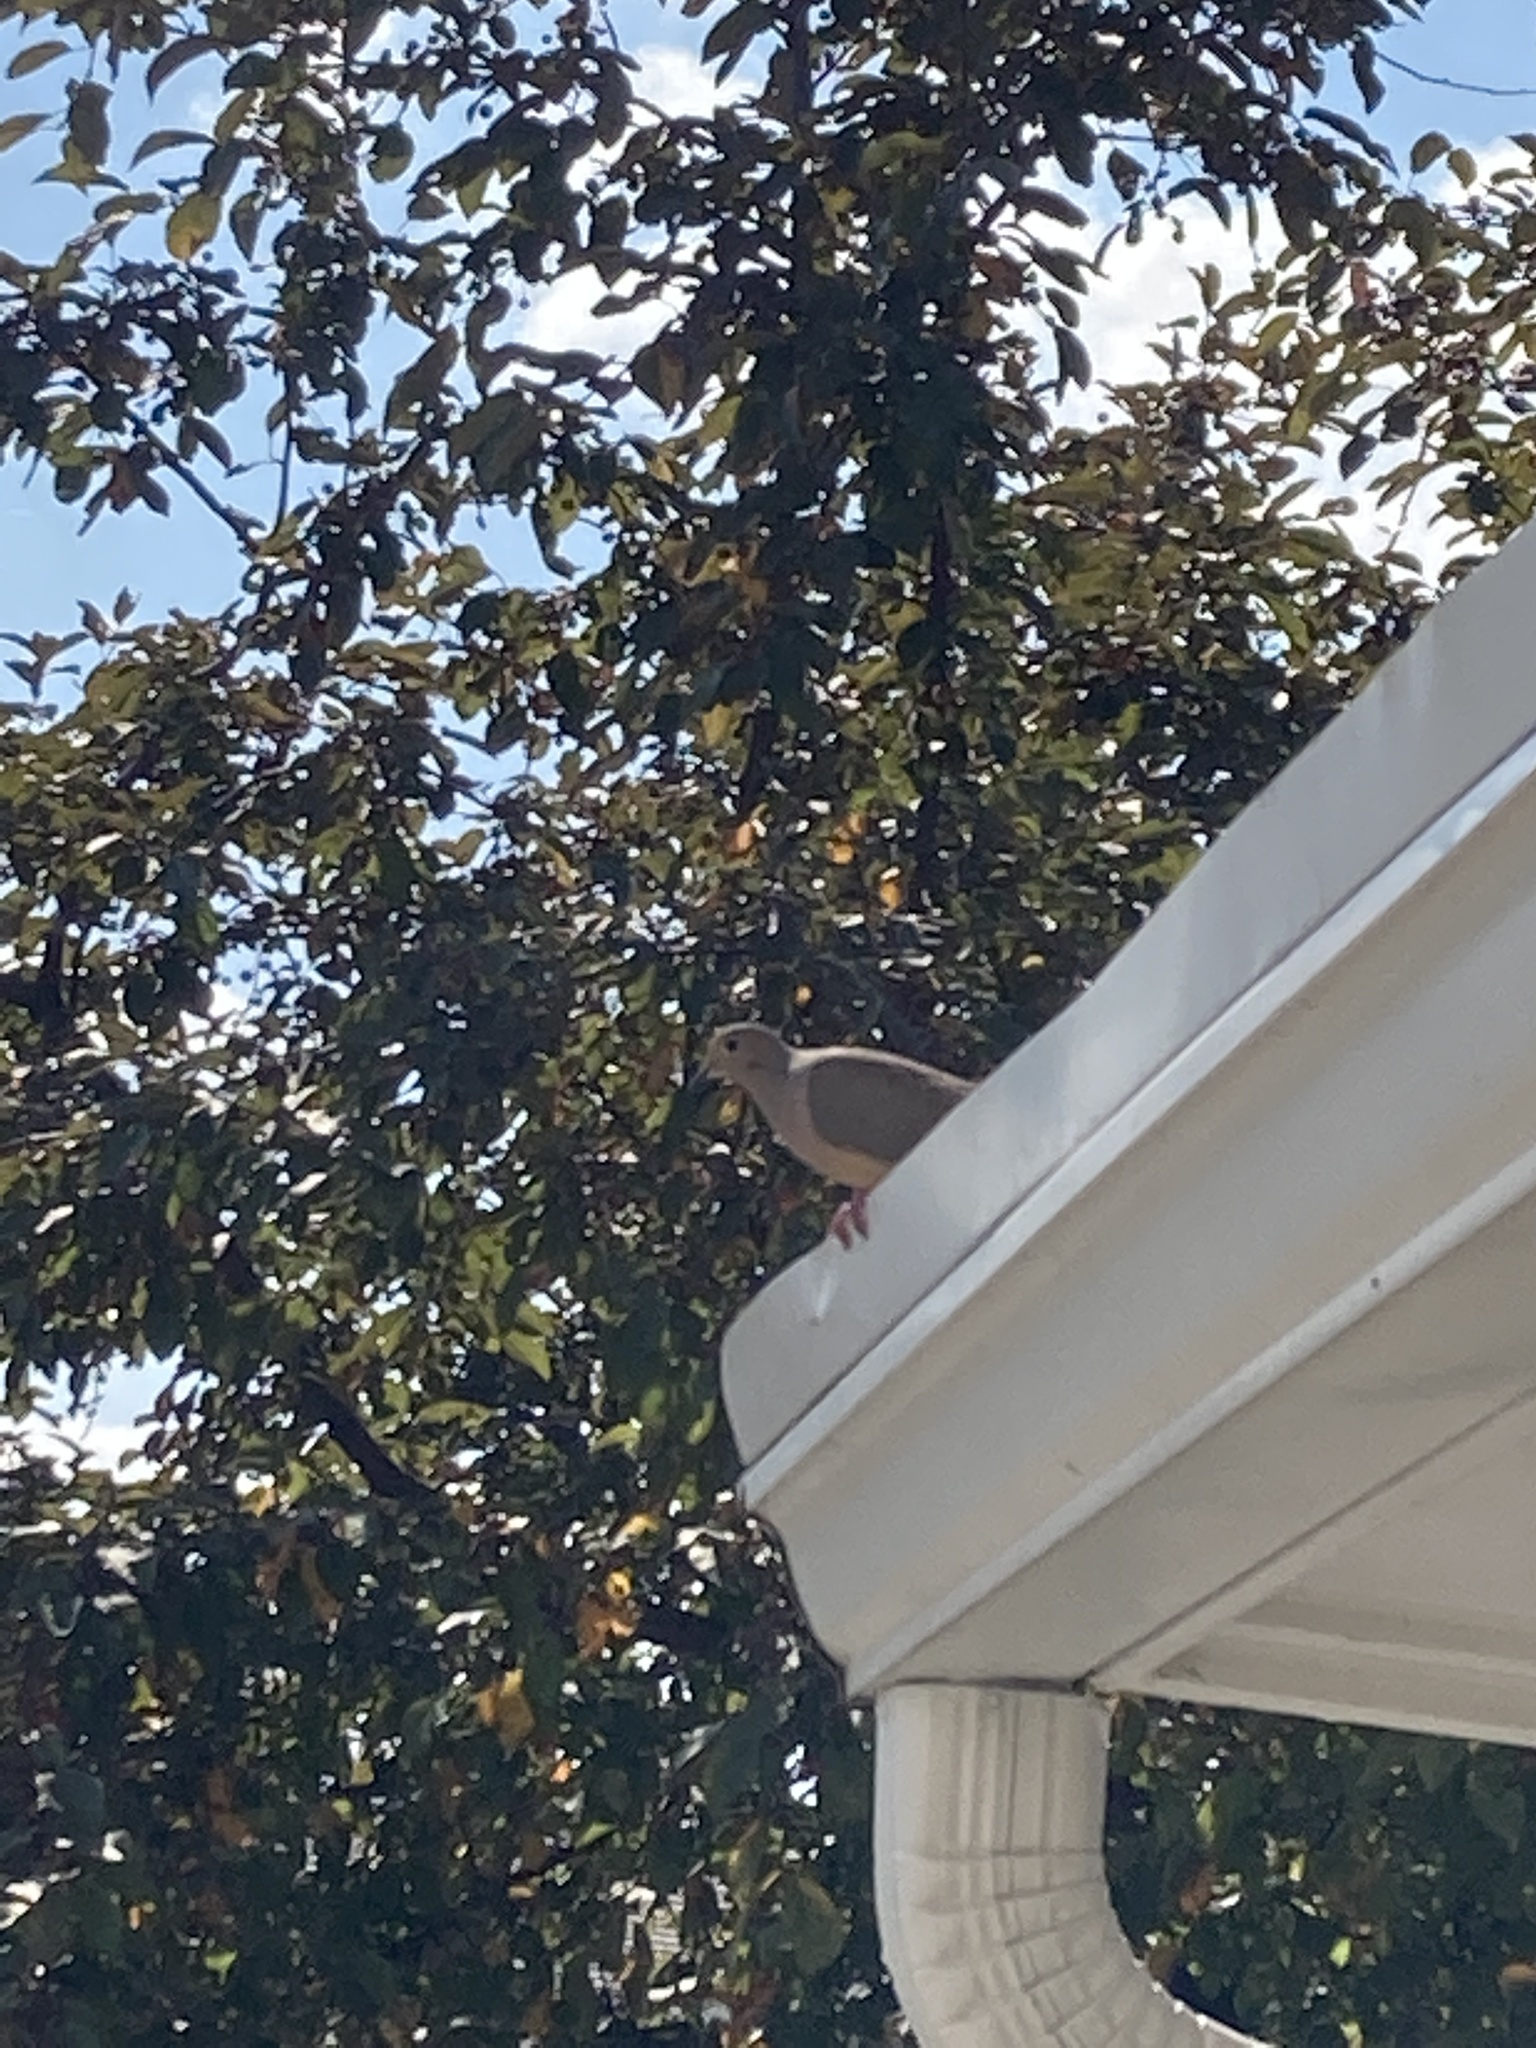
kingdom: Animalia
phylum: Chordata
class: Aves
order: Columbiformes
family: Columbidae
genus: Zenaida
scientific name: Zenaida macroura
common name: Mourning dove
